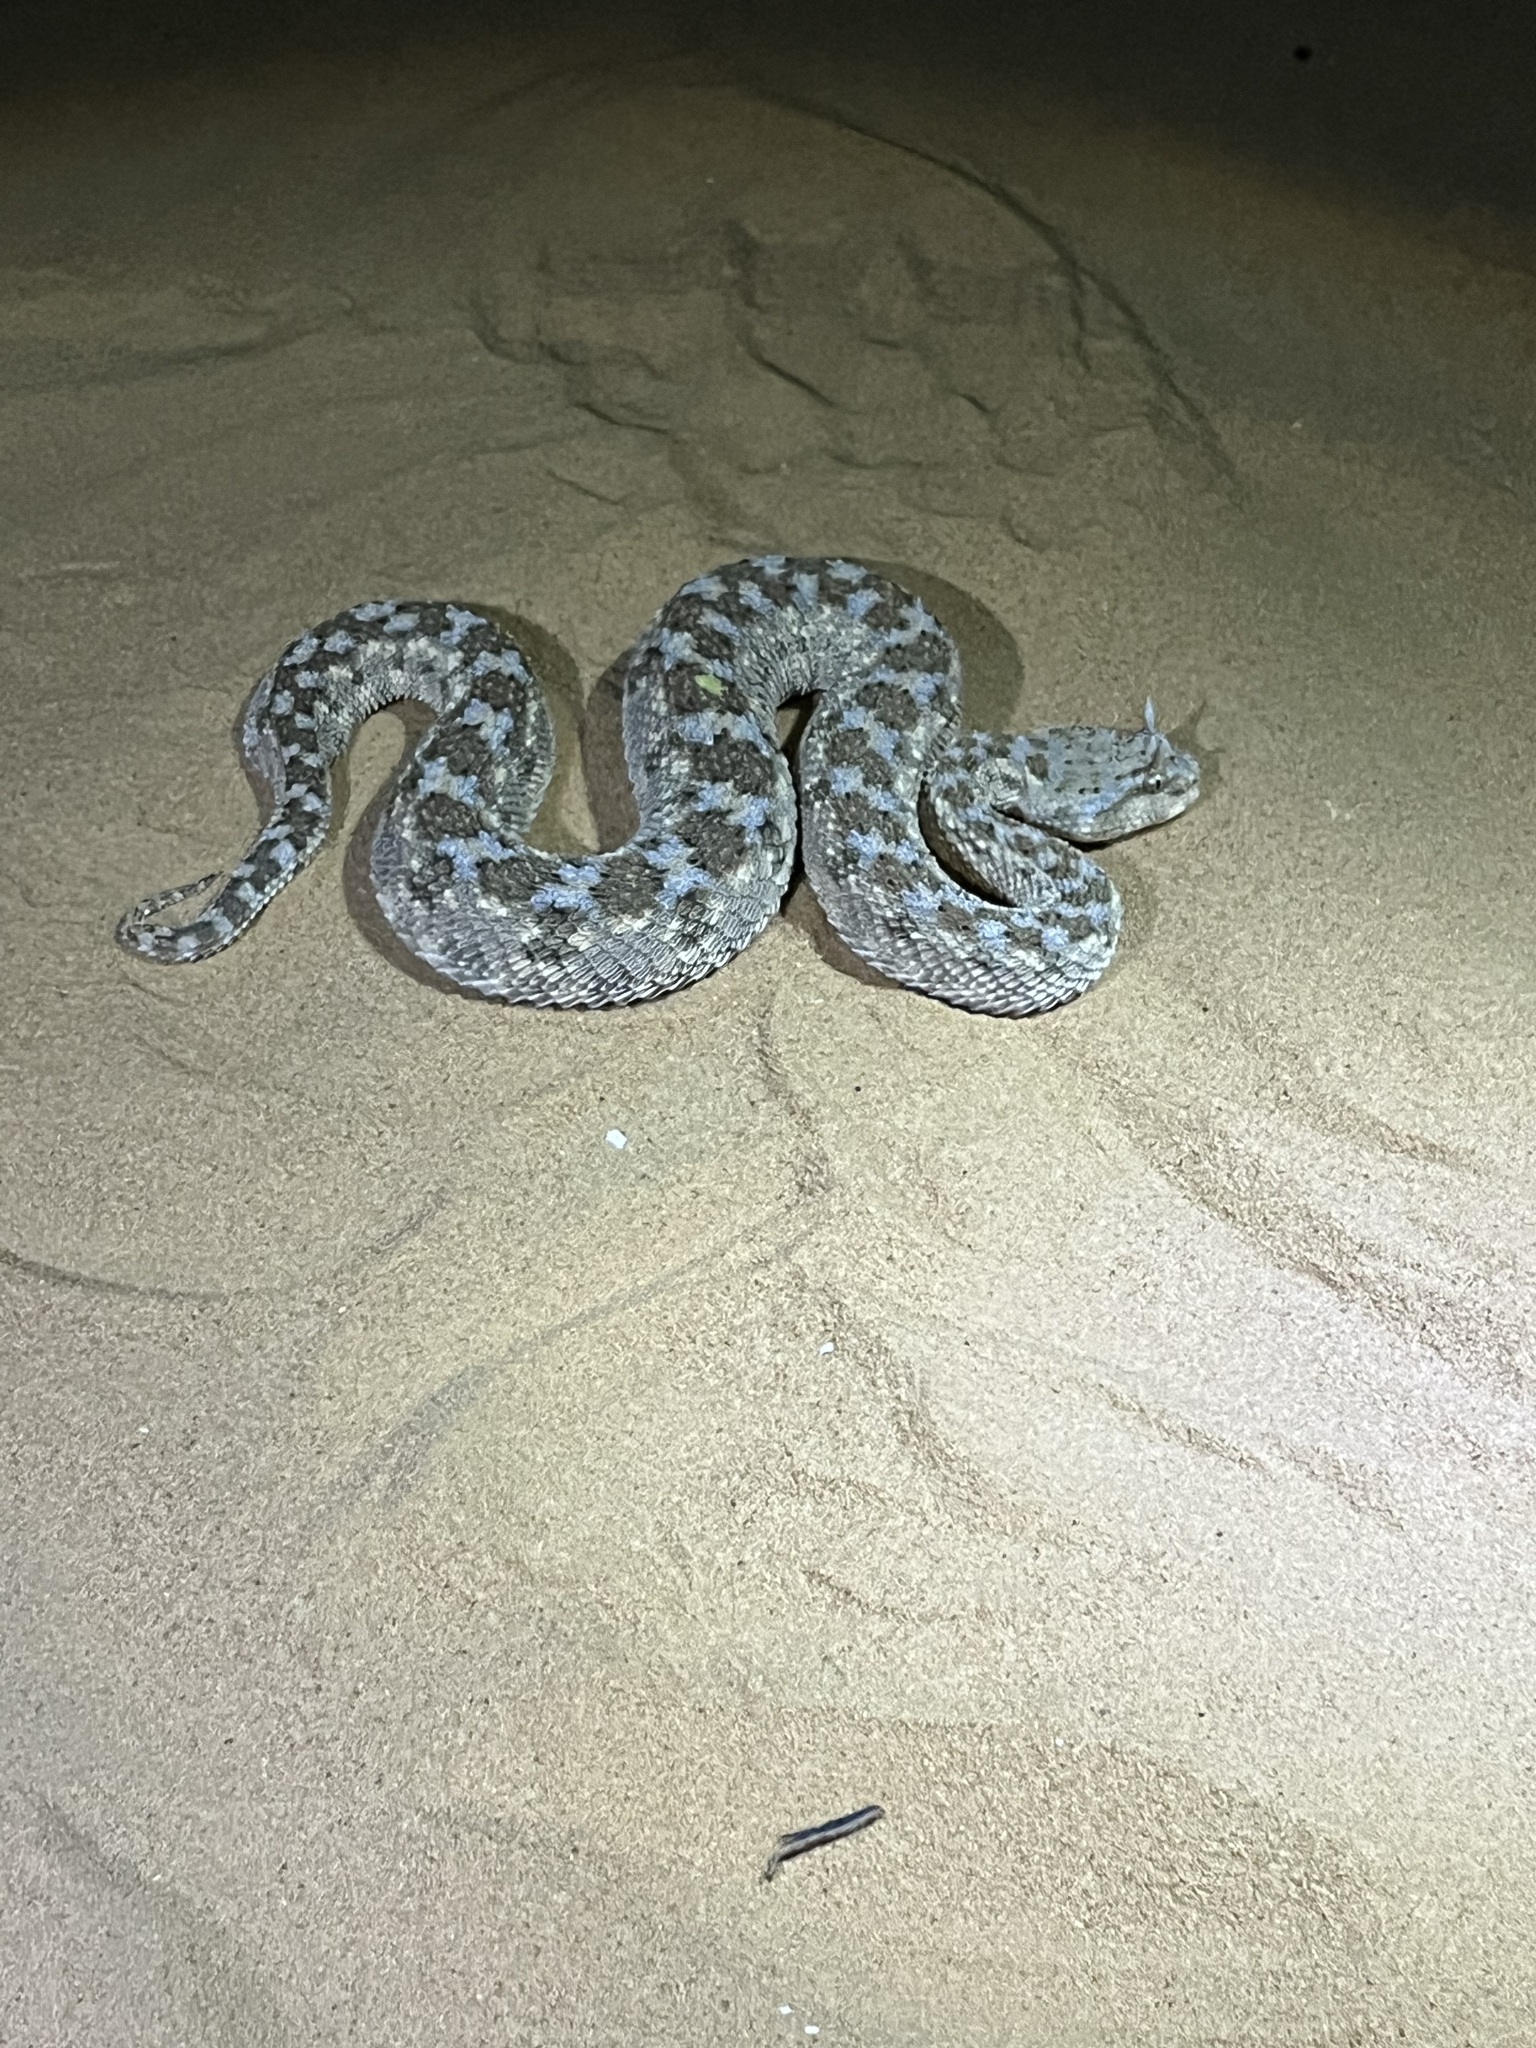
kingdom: Animalia
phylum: Chordata
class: Squamata
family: Viperidae
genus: Cerastes
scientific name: Cerastes cerastes
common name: Desert horned viper
